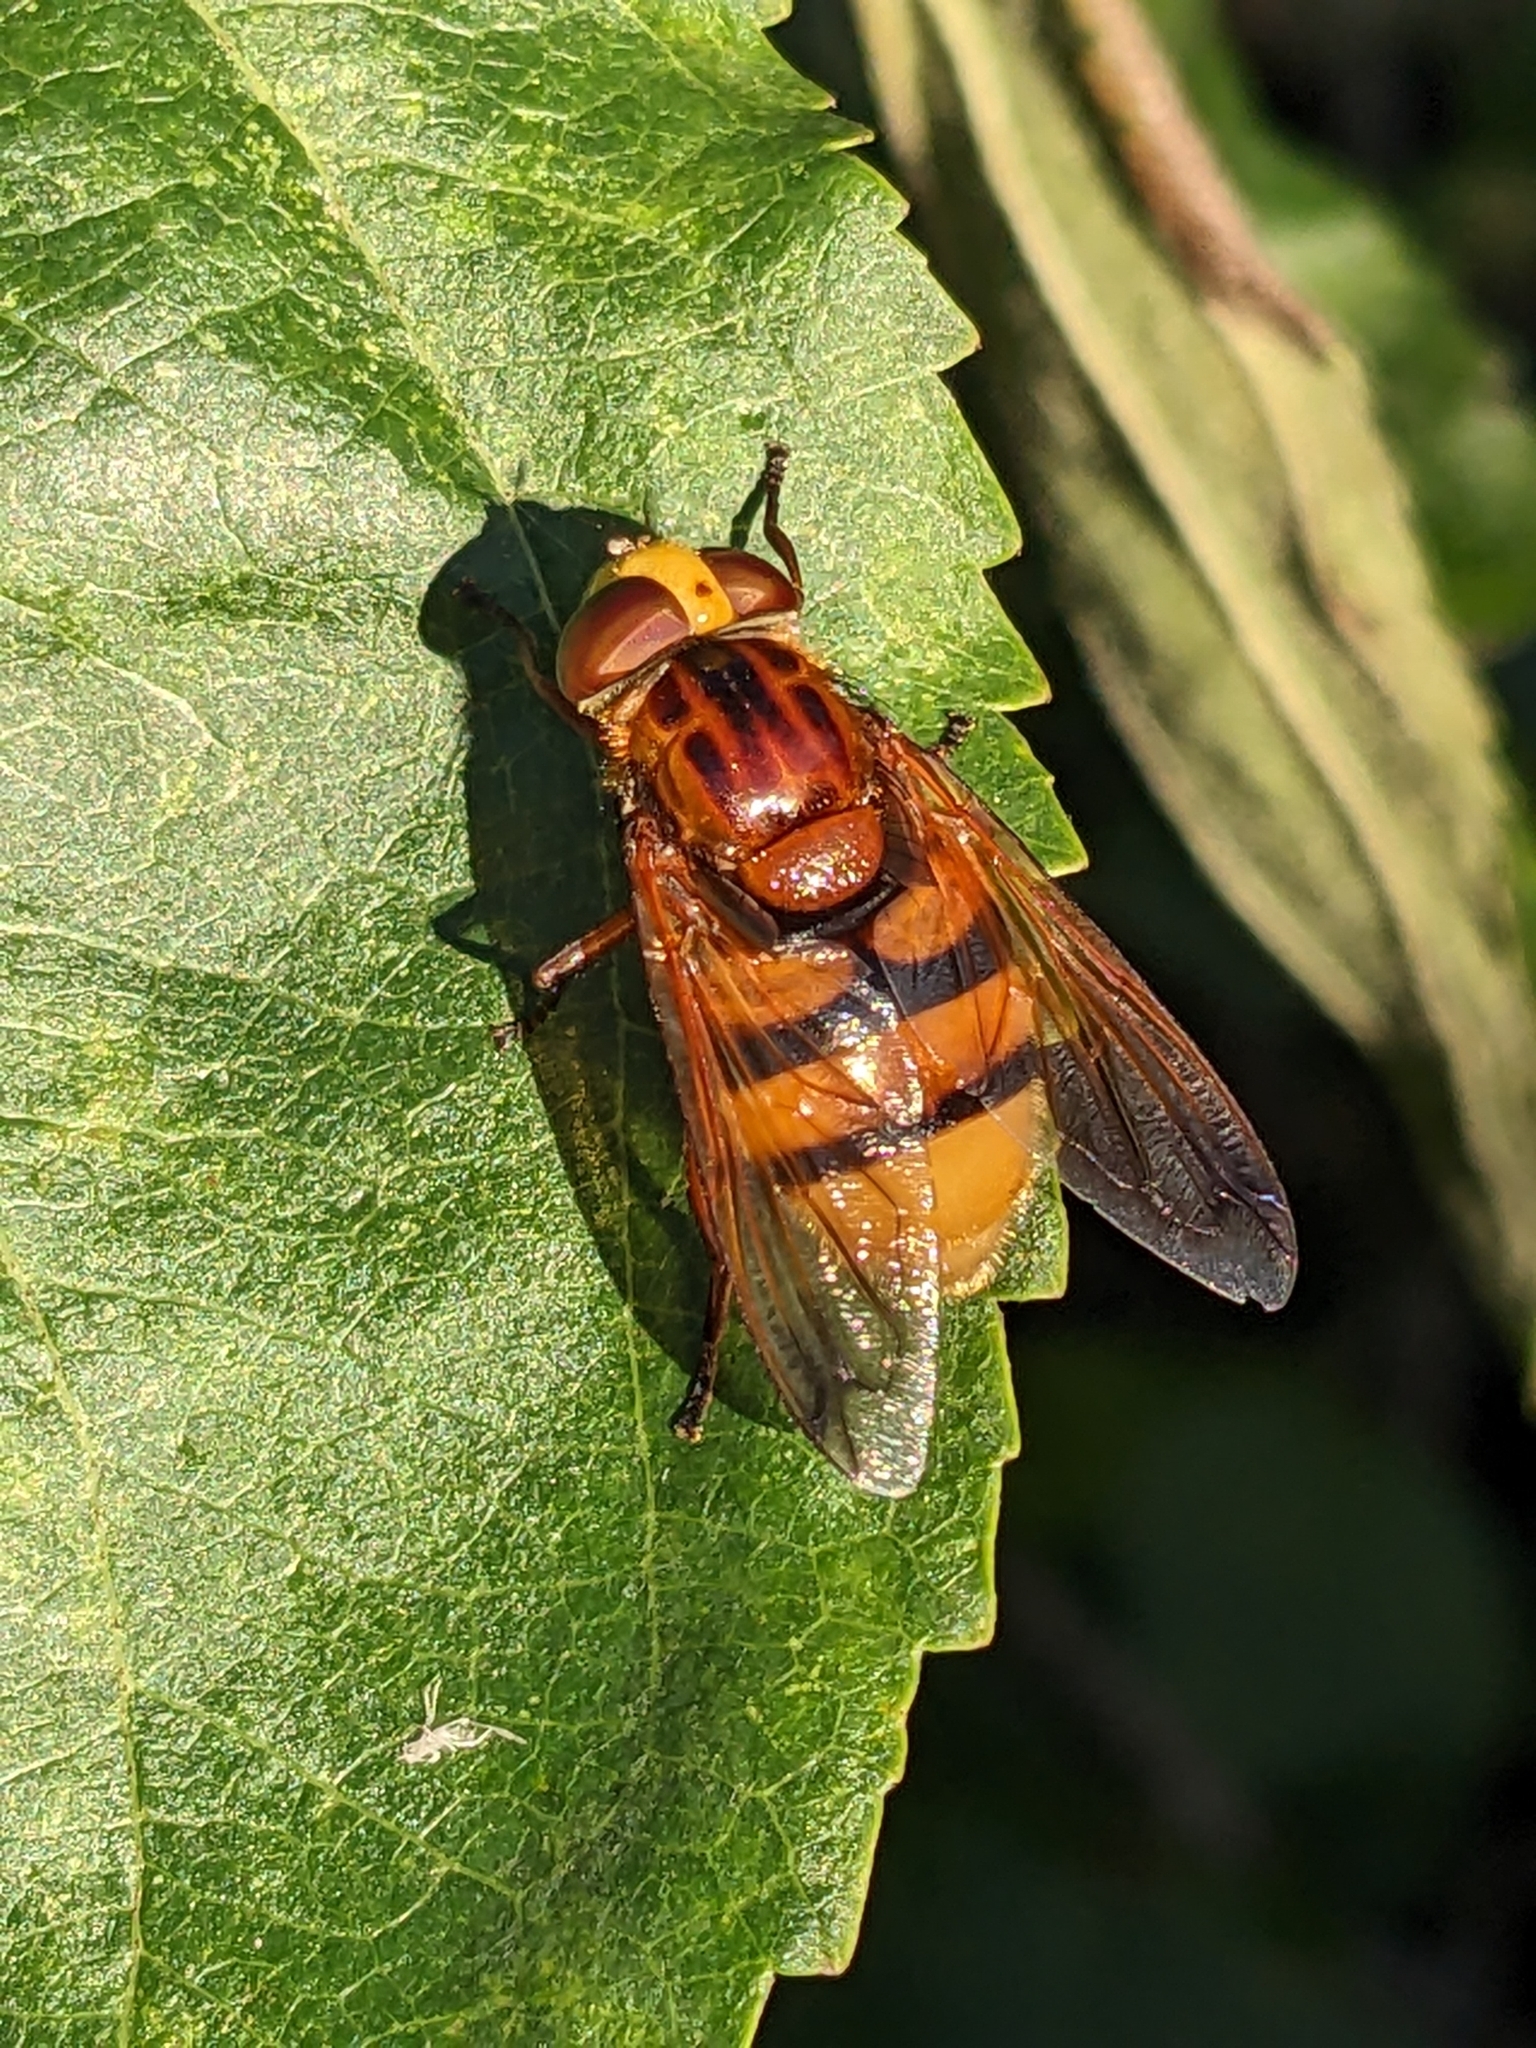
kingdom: Animalia
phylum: Arthropoda
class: Insecta
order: Diptera
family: Syrphidae
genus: Volucella
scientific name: Volucella zonaria
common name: Hornet hoverfly
